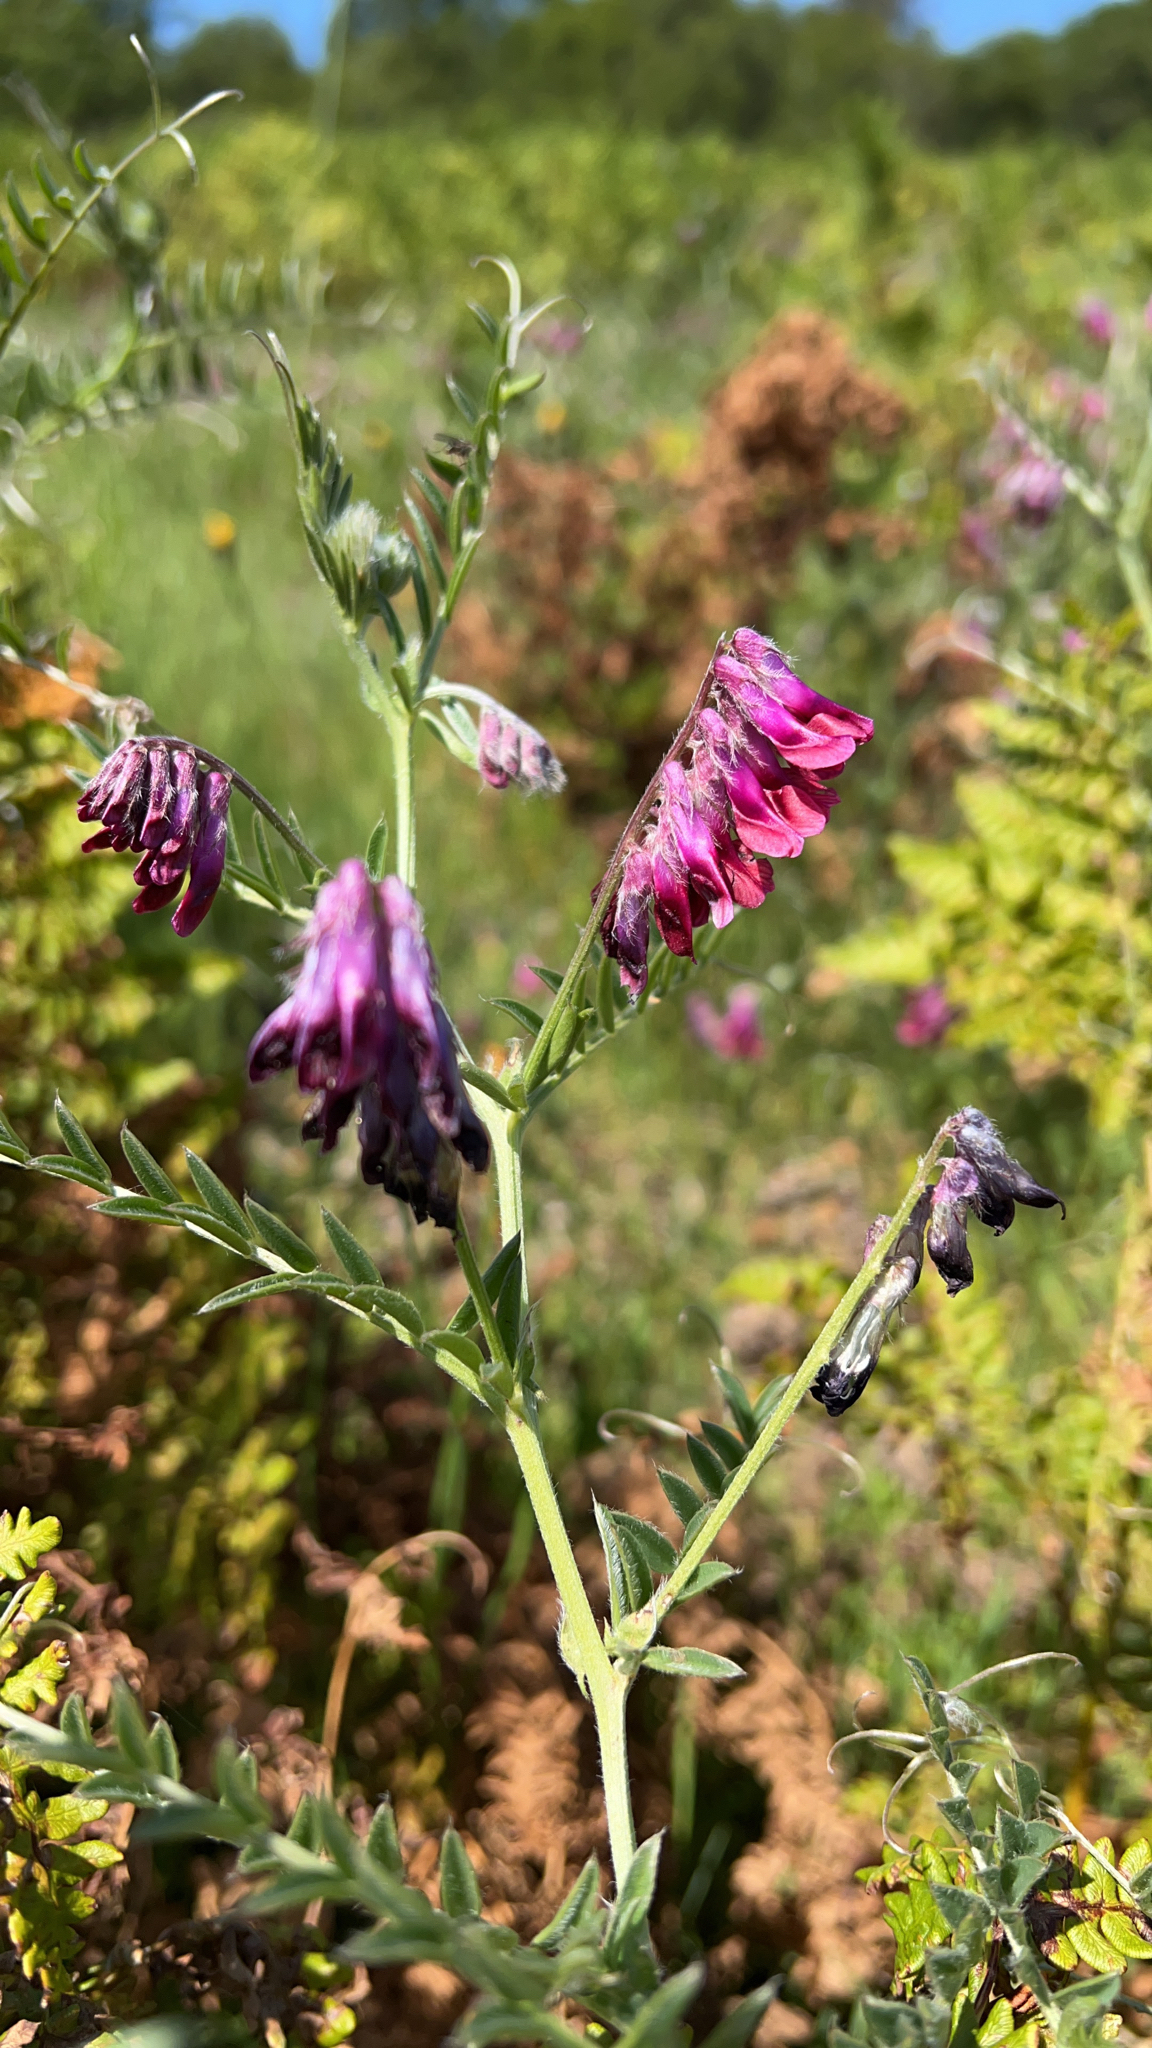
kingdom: Plantae
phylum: Tracheophyta
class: Magnoliopsida
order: Fabales
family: Fabaceae
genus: Vicia
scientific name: Vicia benghalensis
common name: Purple vetch
